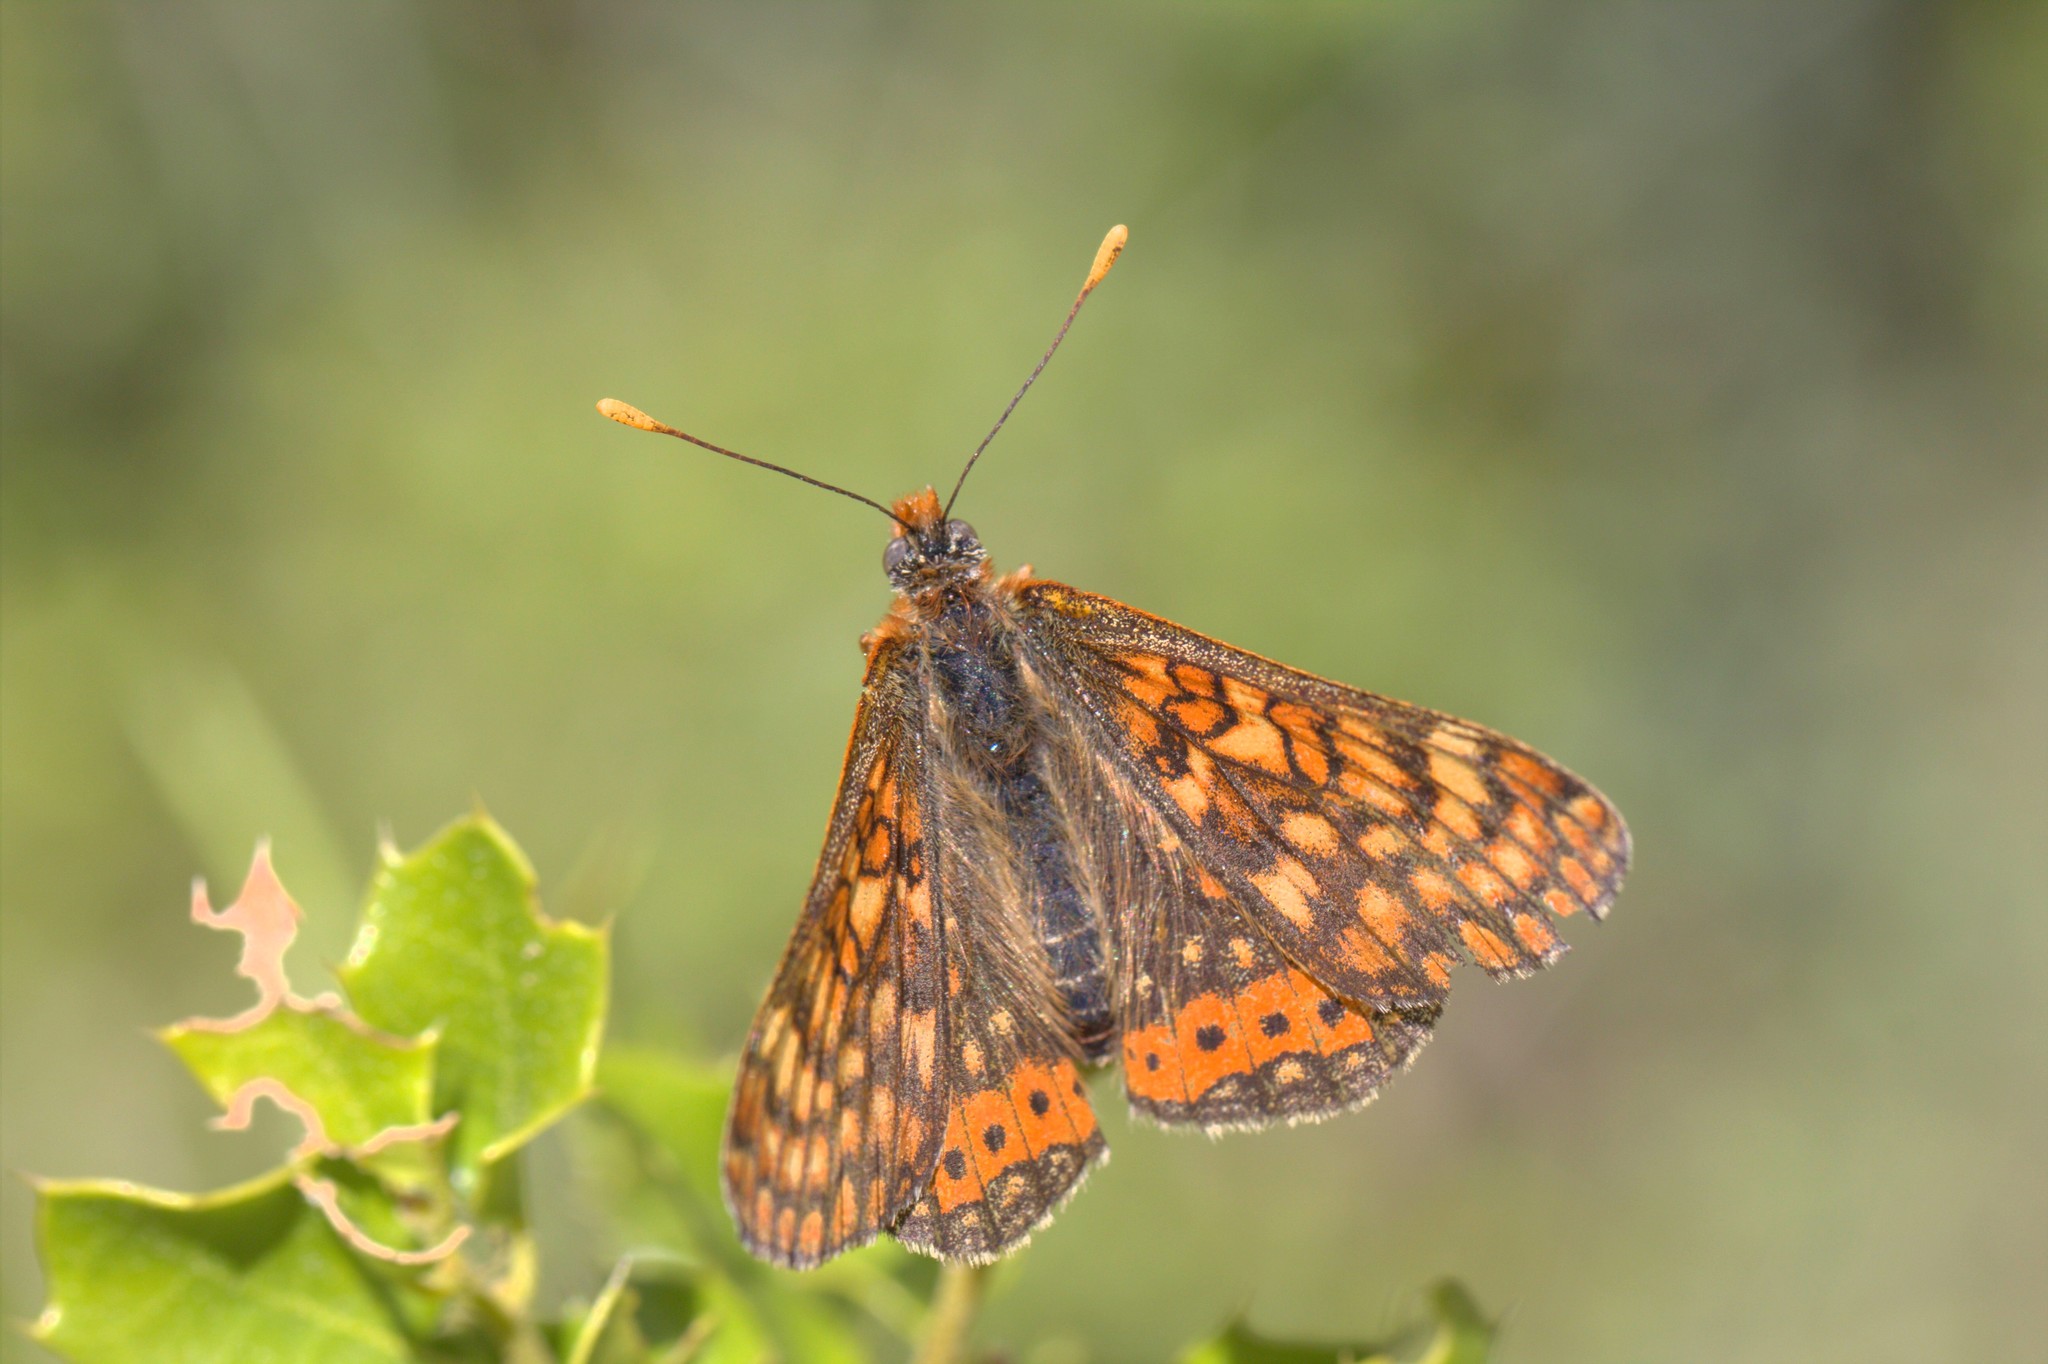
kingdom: Animalia
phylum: Arthropoda
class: Insecta
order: Lepidoptera
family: Nymphalidae
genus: Euphydryas
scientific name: Euphydryas aurinia
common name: Marsh fritillary
